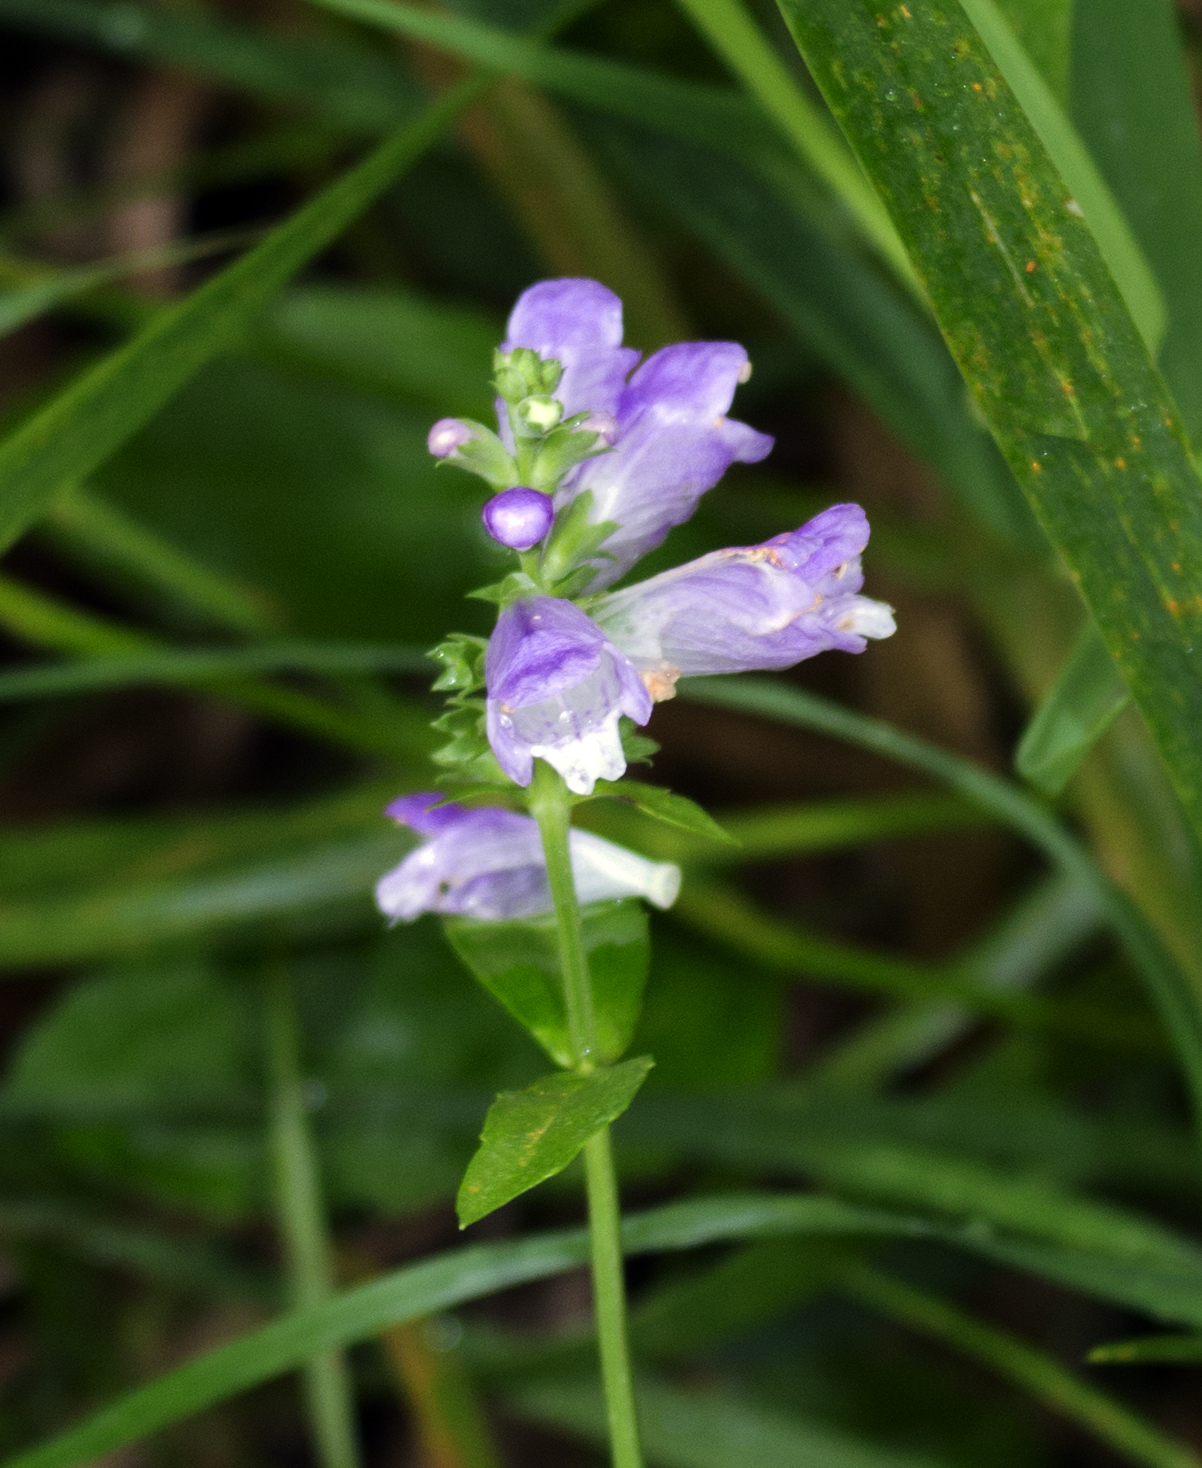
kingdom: Plantae
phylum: Tracheophyta
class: Magnoliopsida
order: Lamiales
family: Lamiaceae
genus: Physostegia
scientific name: Physostegia virginiana
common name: Obedient-plant
